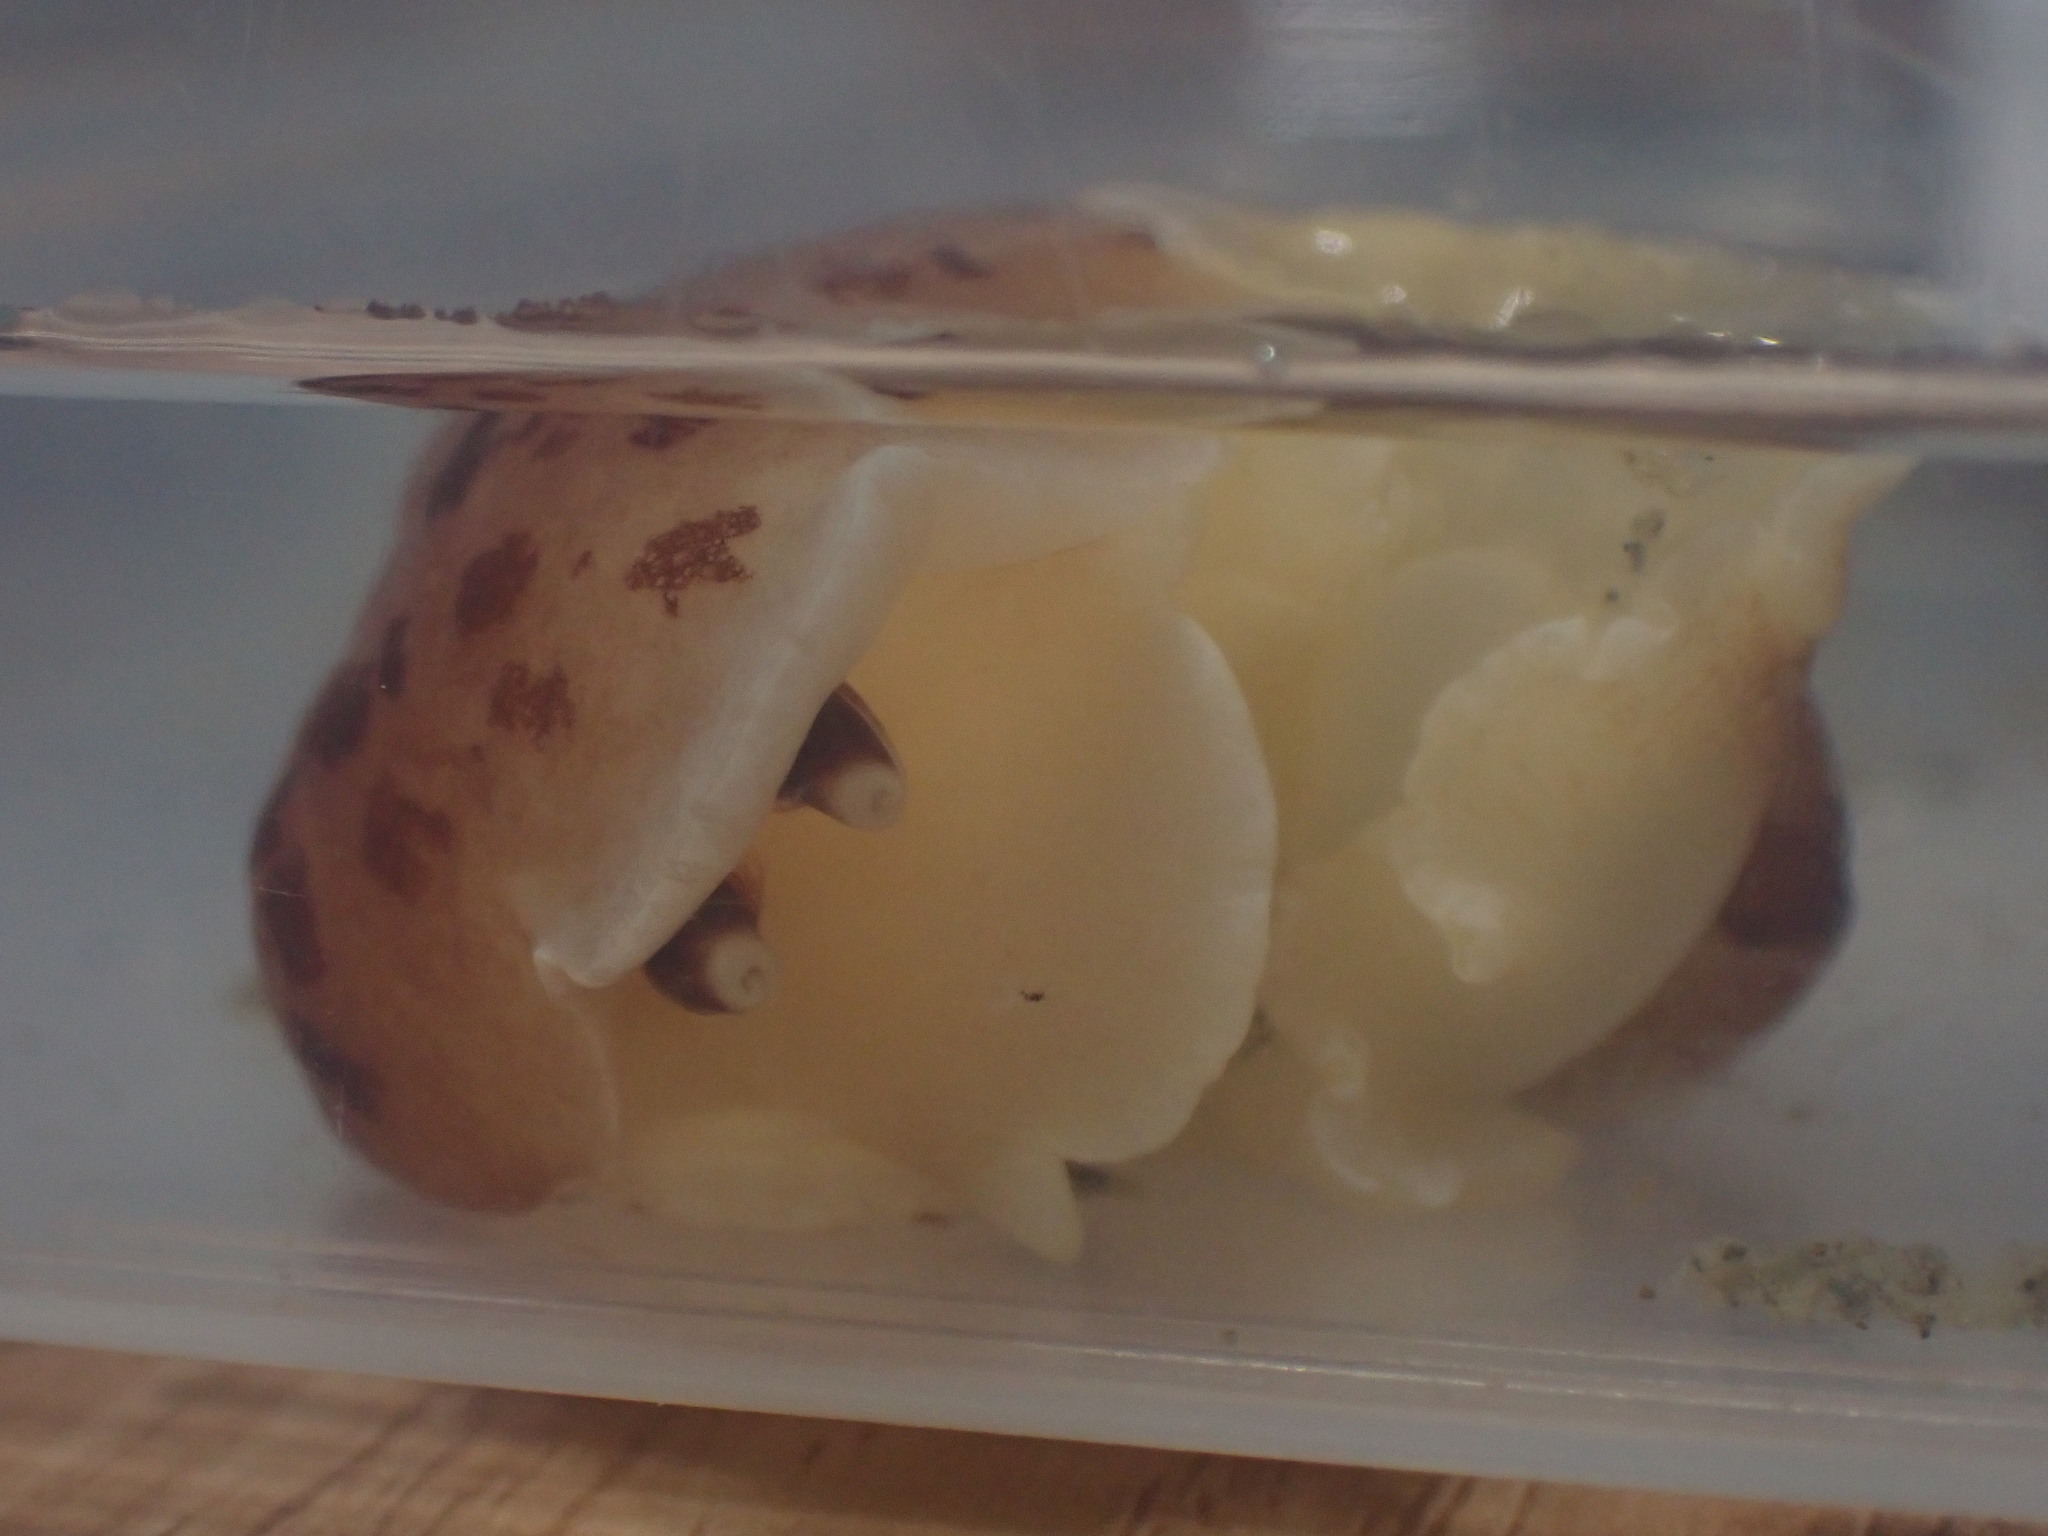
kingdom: Animalia
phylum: Mollusca
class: Gastropoda
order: Pleurobranchida
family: Pleurobranchidae
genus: Berthella
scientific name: Berthella ornata
